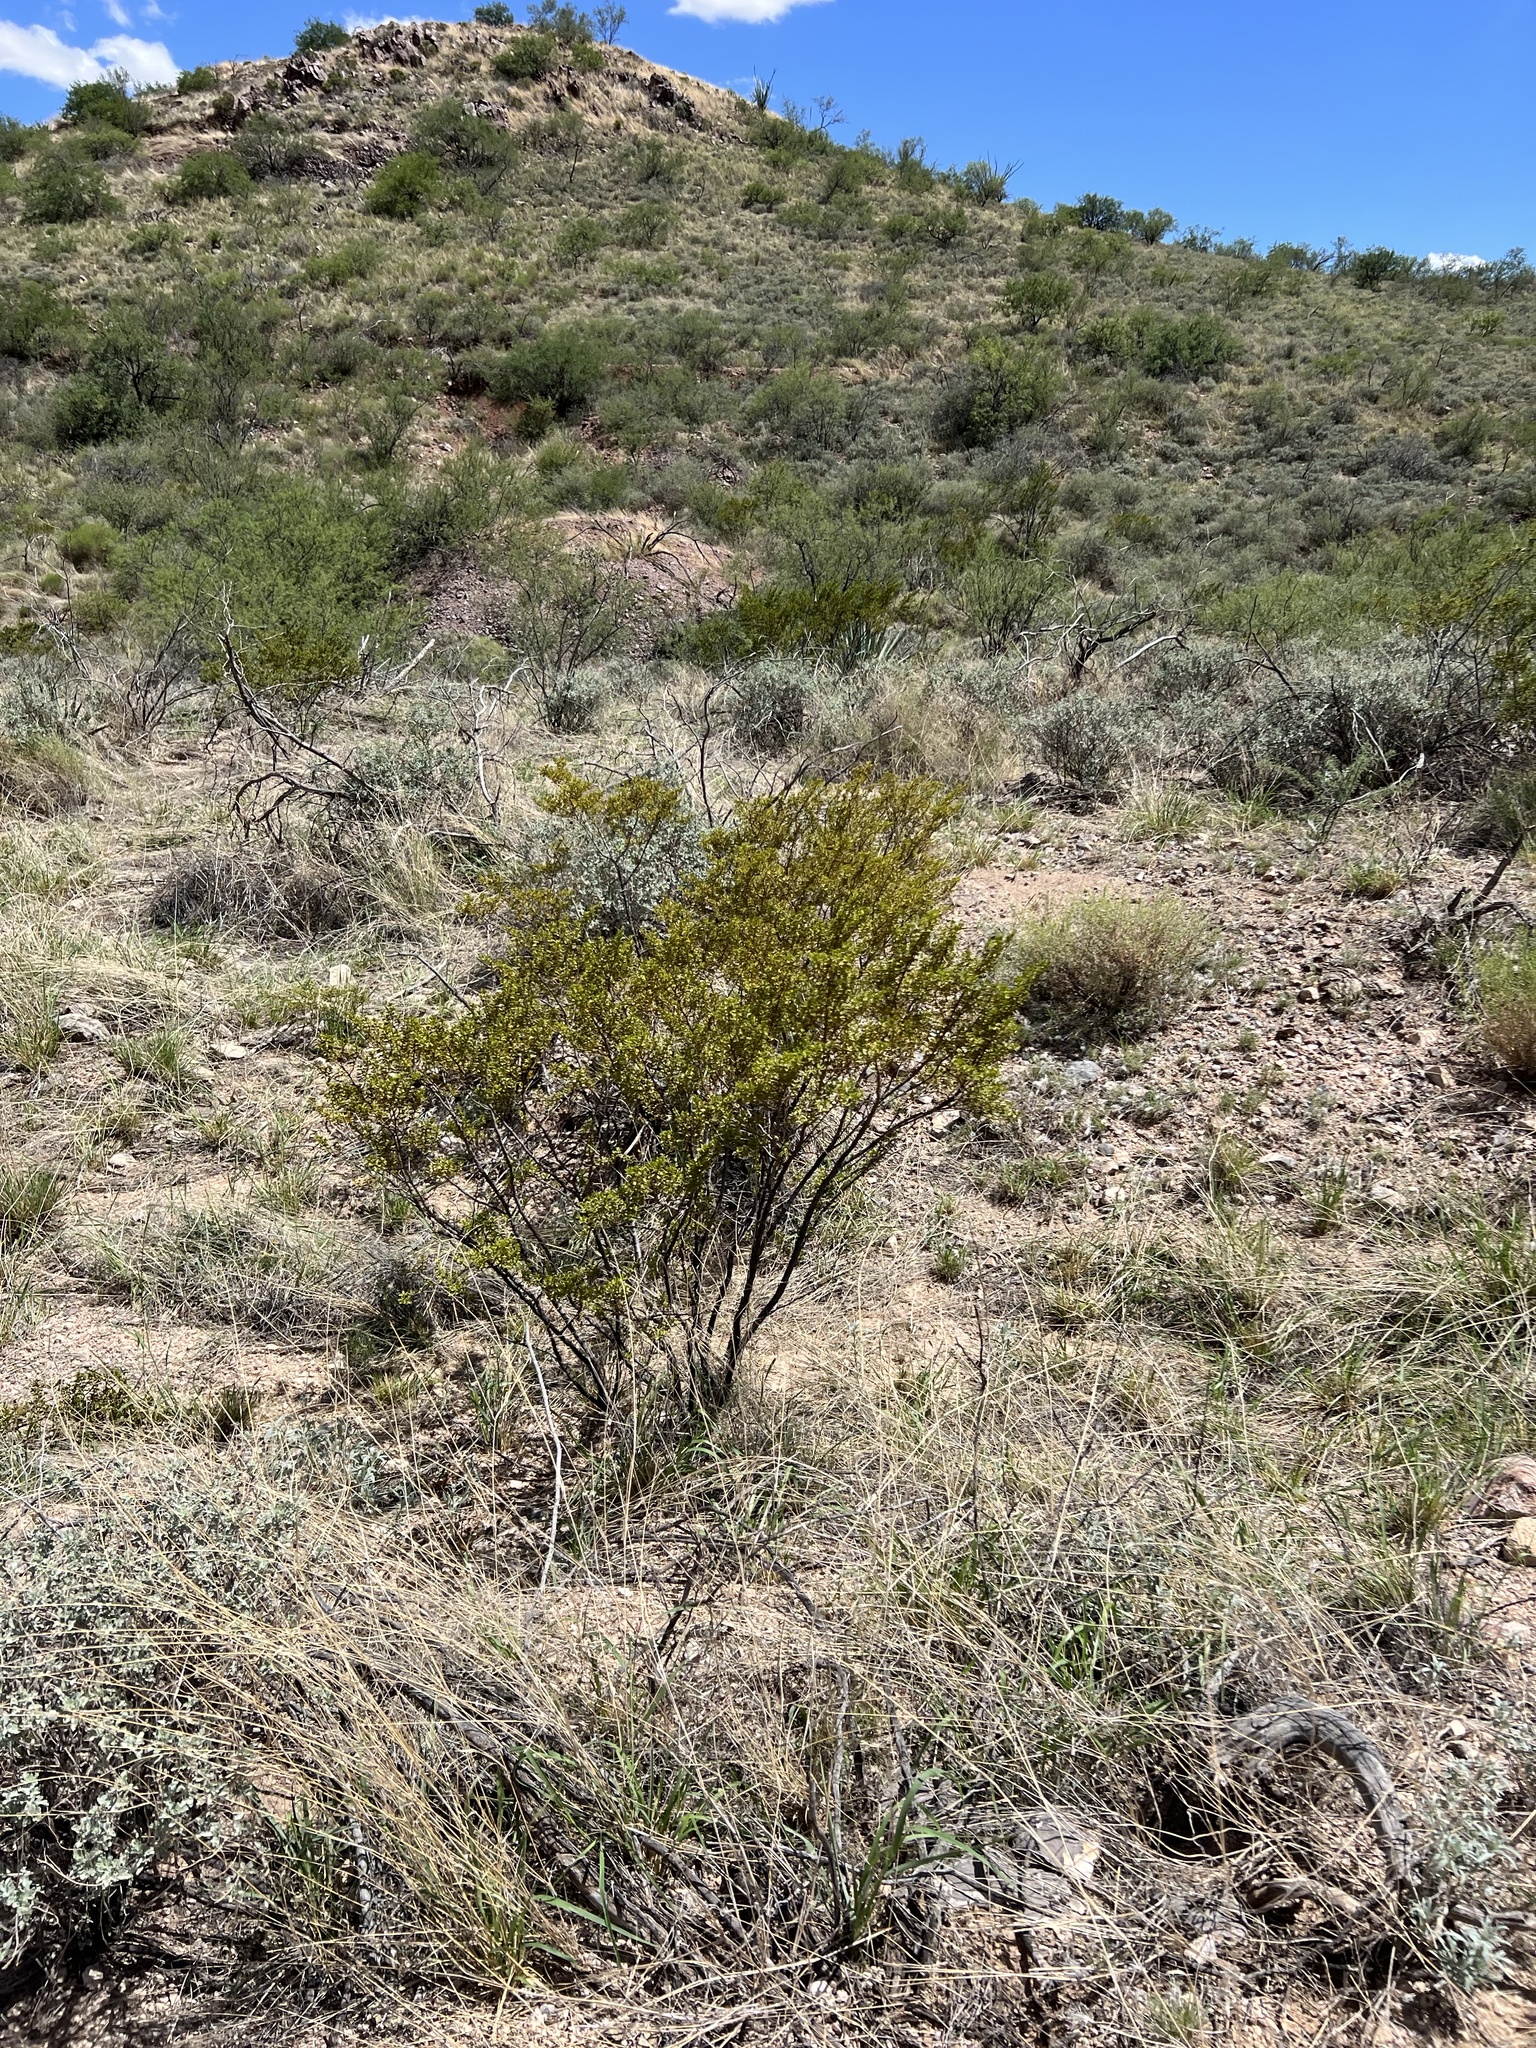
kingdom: Plantae
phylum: Tracheophyta
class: Magnoliopsida
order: Zygophyllales
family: Zygophyllaceae
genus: Larrea
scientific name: Larrea tridentata
